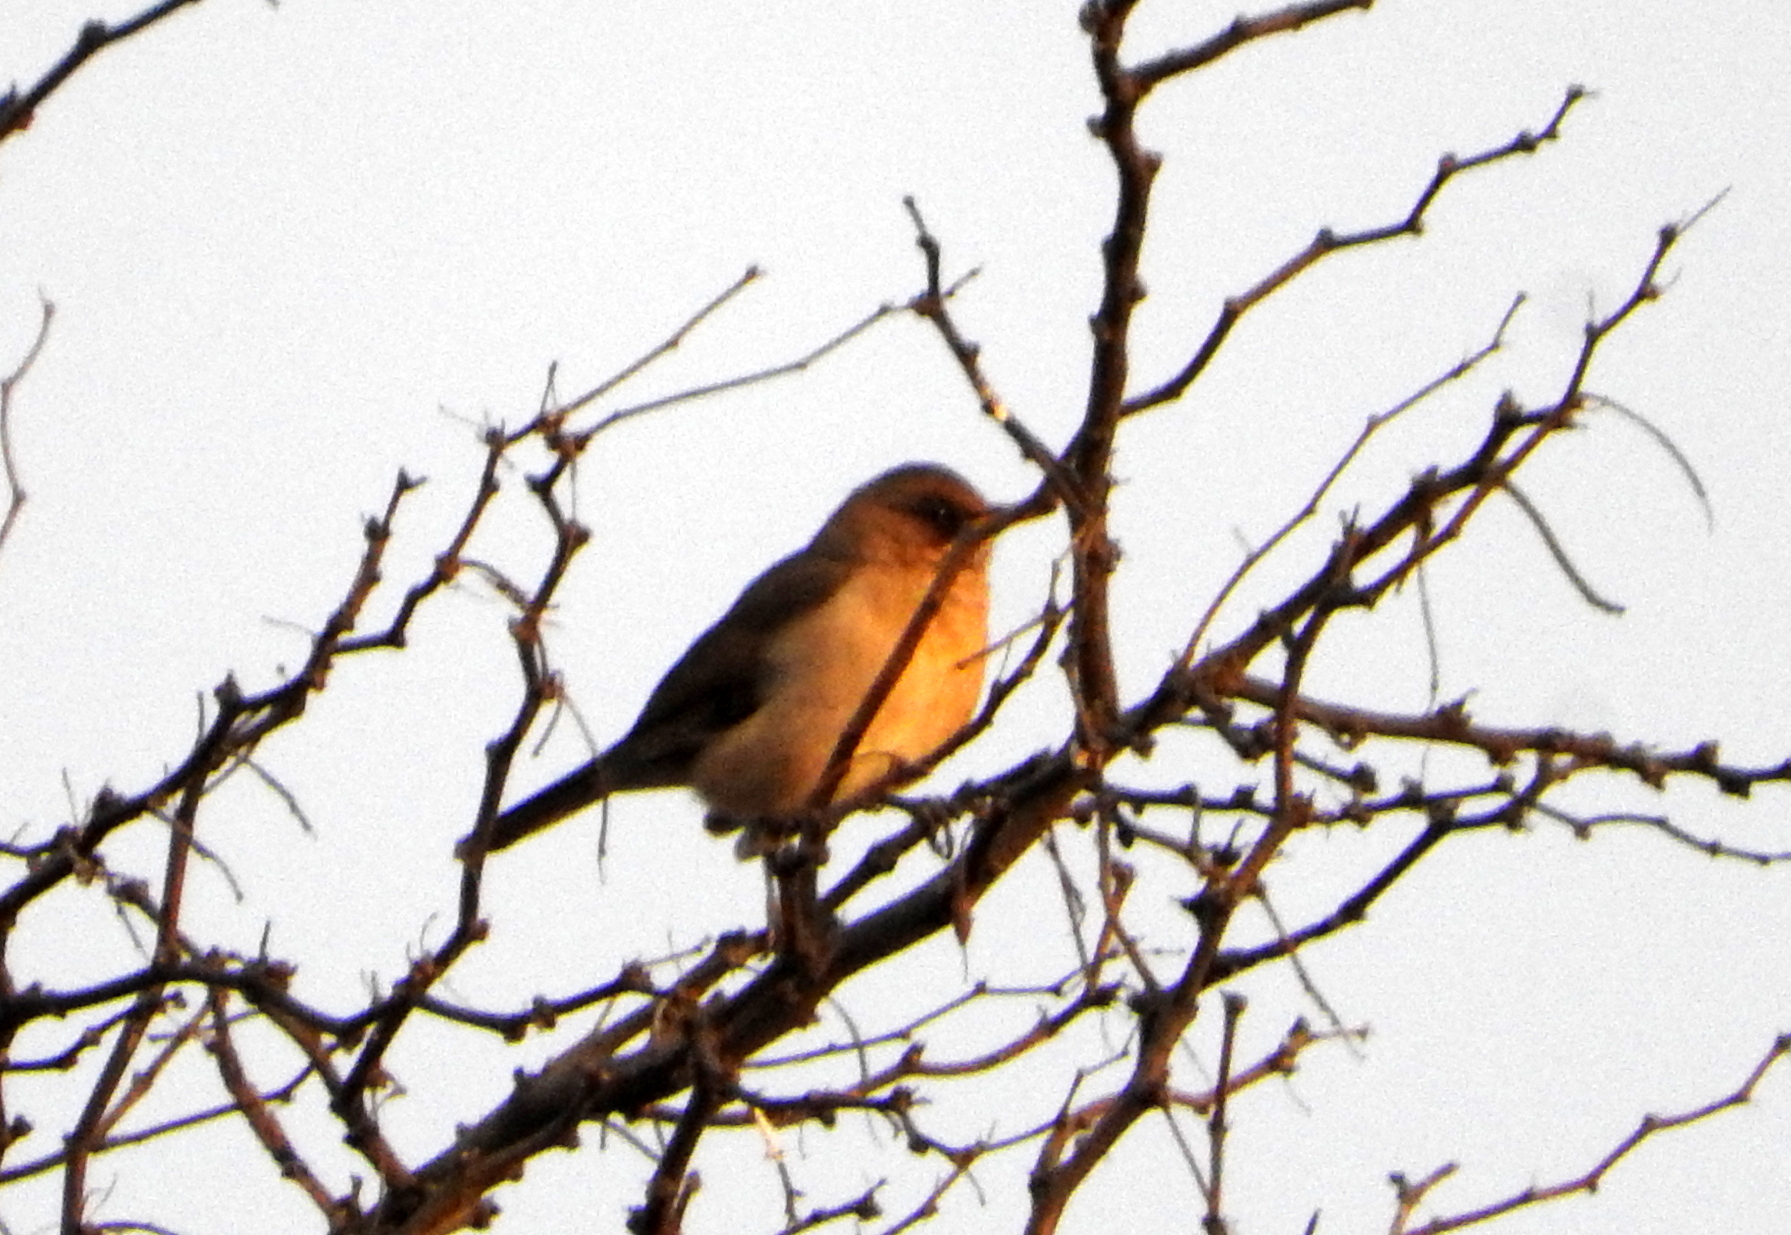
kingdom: Animalia
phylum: Chordata
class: Aves
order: Passeriformes
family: Turdidae
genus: Turdus
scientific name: Turdus amaurochalinus
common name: Creamy-bellied thrush
